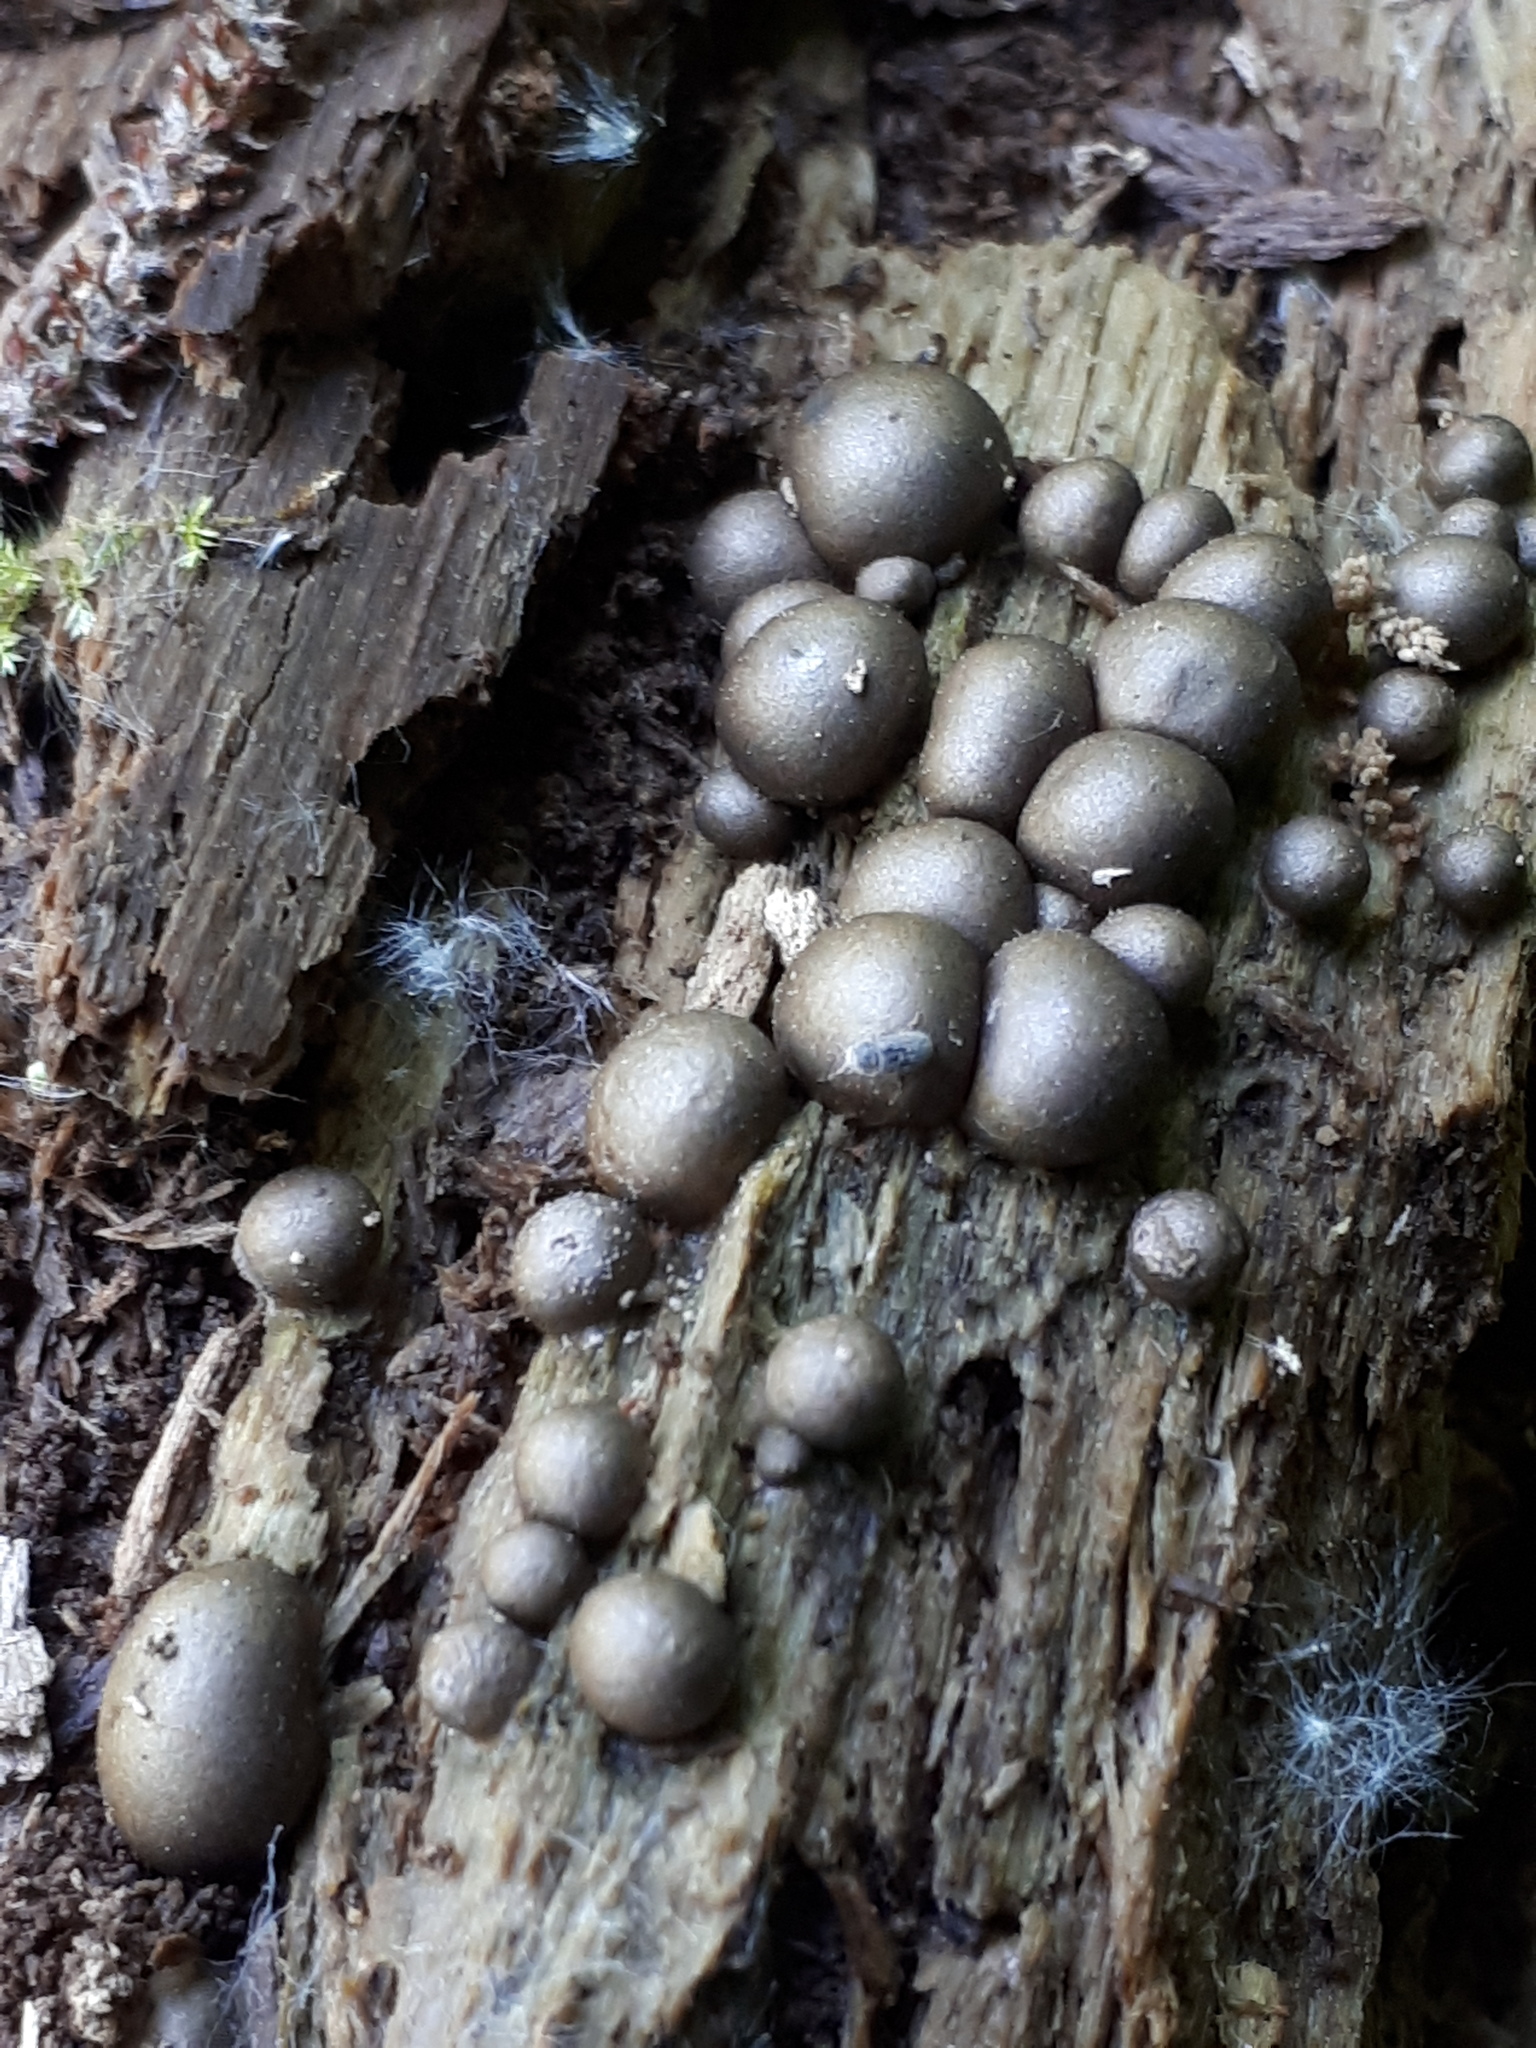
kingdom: Protozoa
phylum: Mycetozoa
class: Myxomycetes
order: Cribrariales
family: Tubiferaceae
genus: Lycogala
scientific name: Lycogala epidendrum
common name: Wolf's milk
